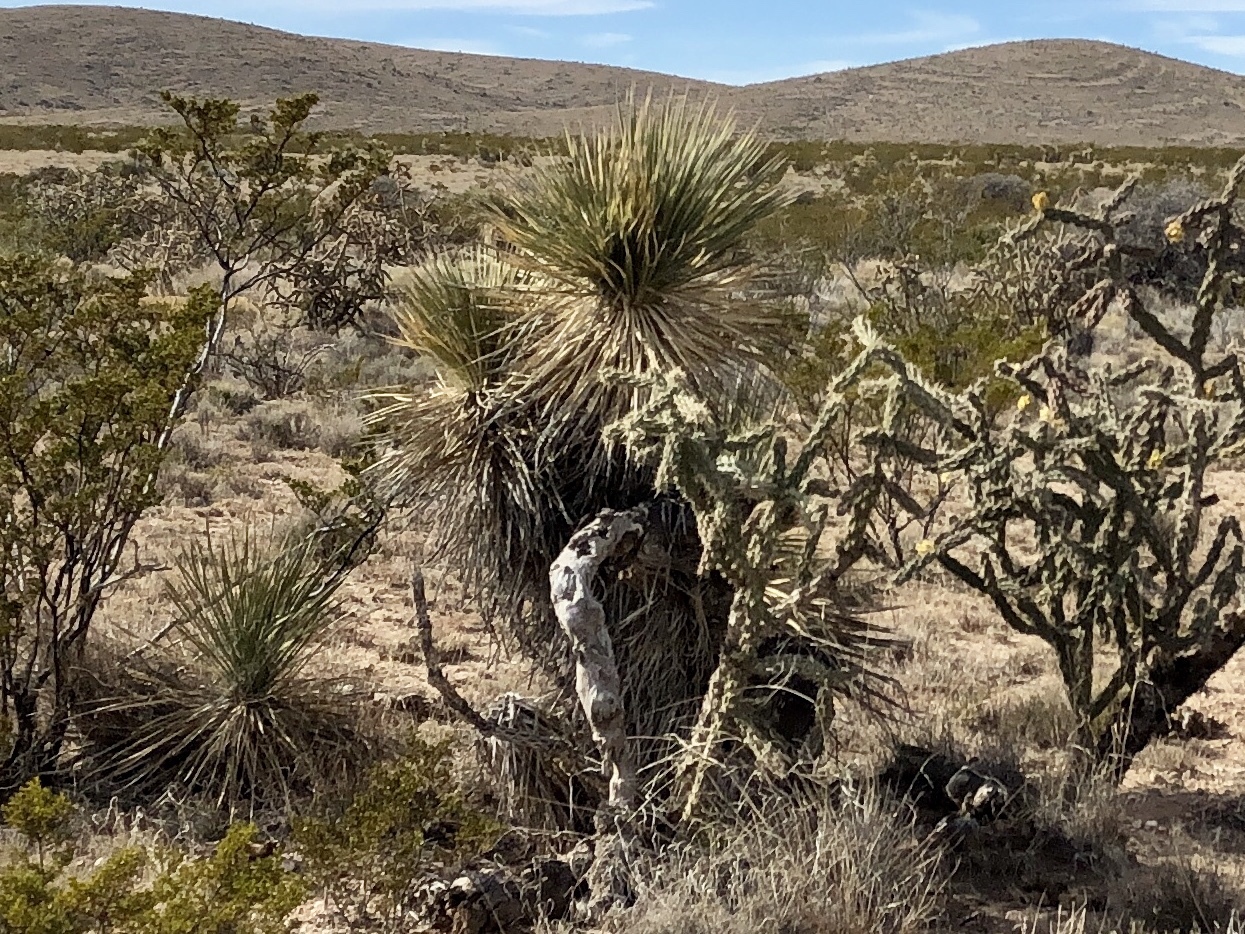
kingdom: Plantae
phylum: Tracheophyta
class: Liliopsida
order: Asparagales
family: Asparagaceae
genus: Yucca
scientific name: Yucca elata
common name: Palmella
